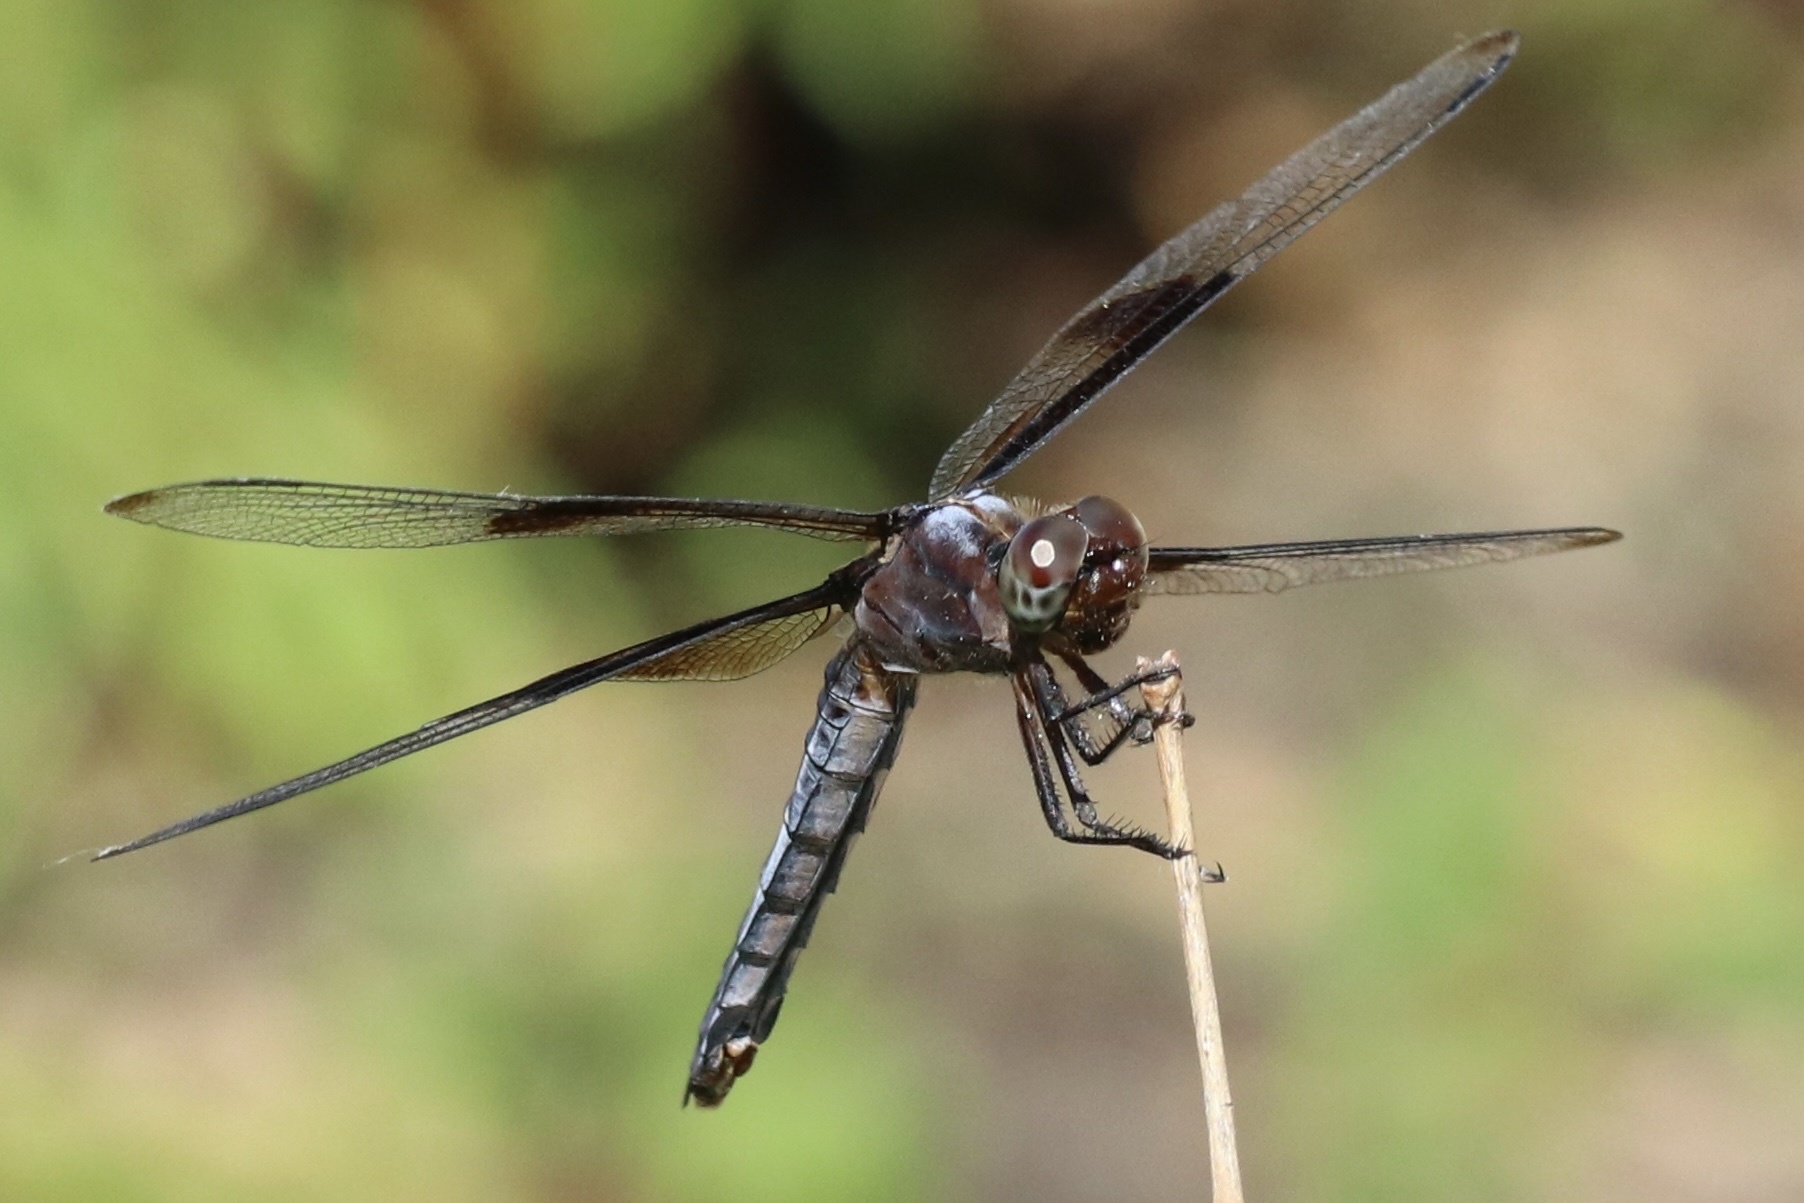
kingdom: Animalia
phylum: Arthropoda
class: Insecta
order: Odonata
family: Libellulidae
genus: Libellula
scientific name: Libellula luctuosa
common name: Widow skimmer
